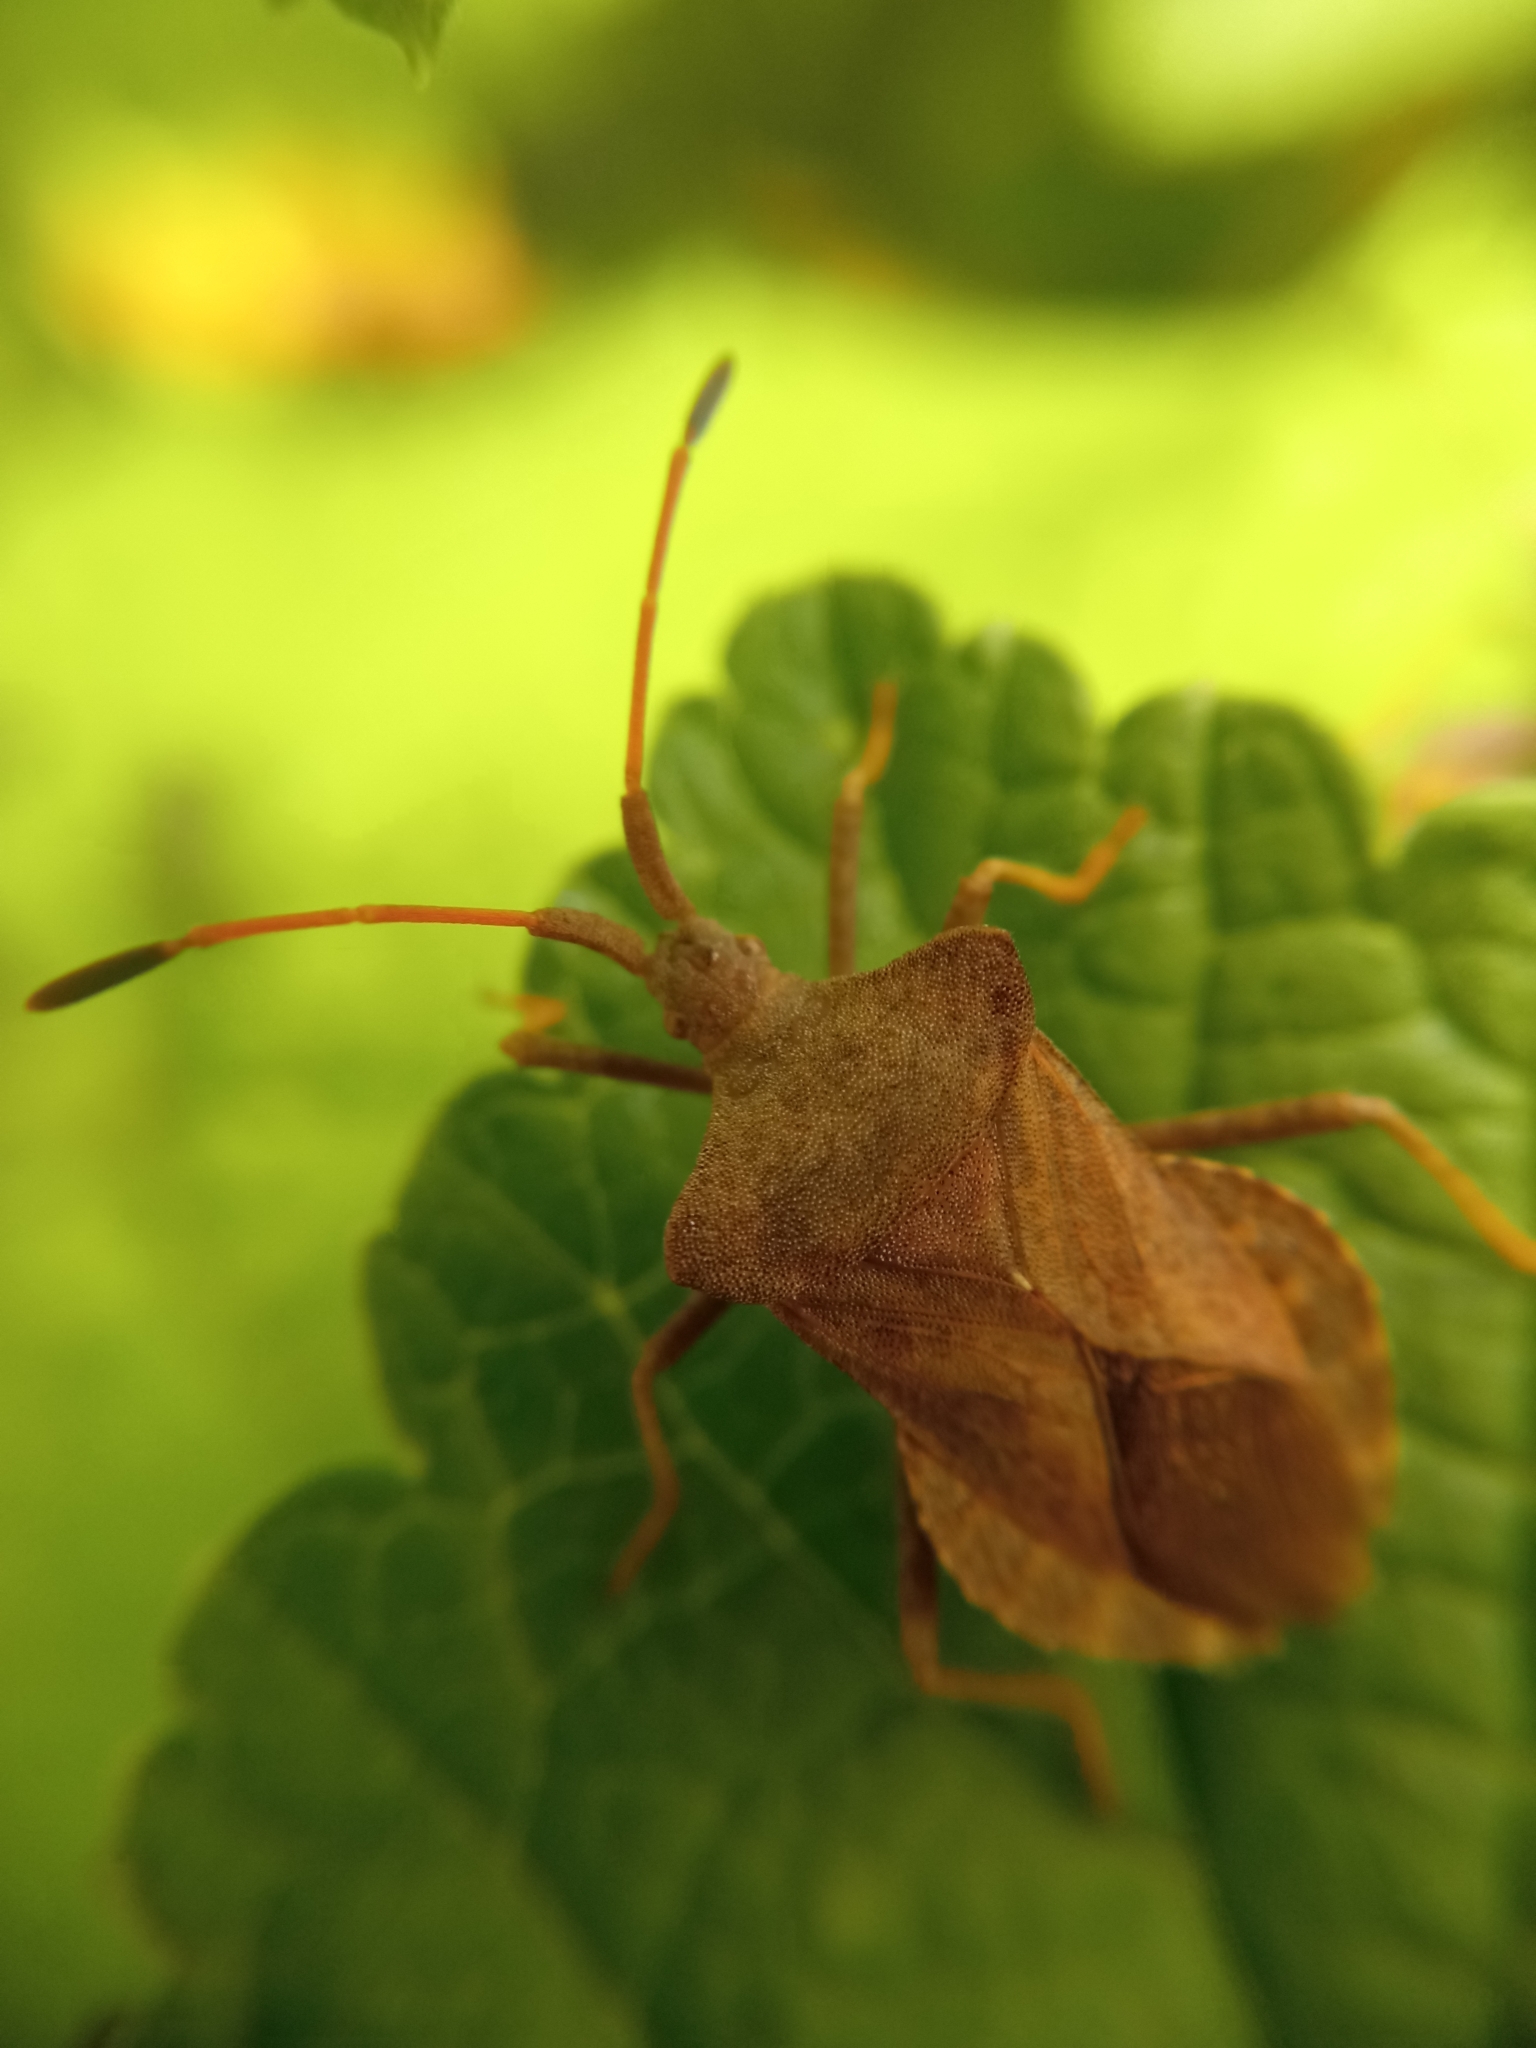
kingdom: Animalia
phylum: Arthropoda
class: Insecta
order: Hemiptera
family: Coreidae
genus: Coreus
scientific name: Coreus marginatus
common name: Dock bug
